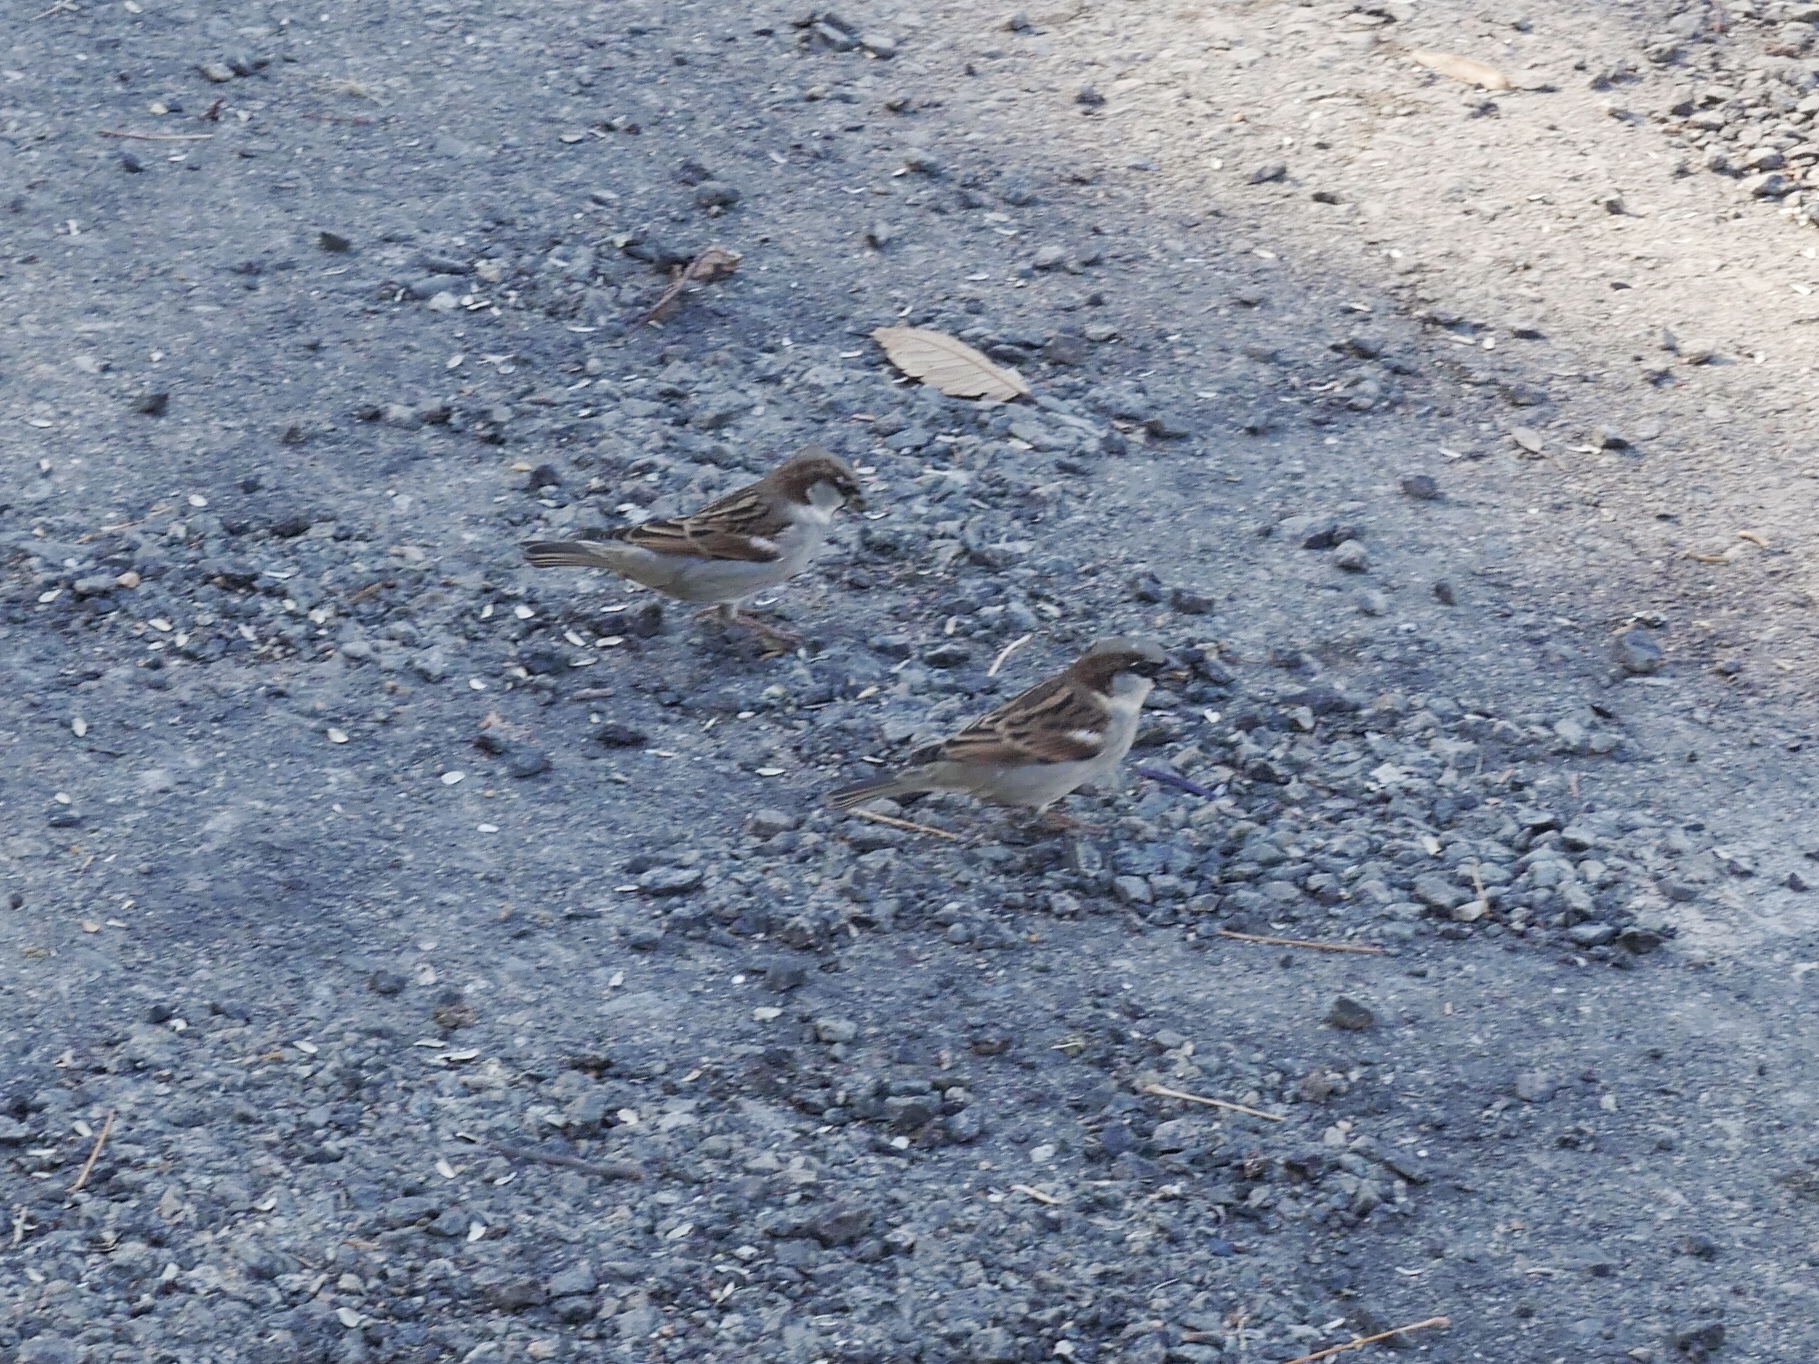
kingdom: Animalia
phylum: Chordata
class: Aves
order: Passeriformes
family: Passeridae
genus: Passer
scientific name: Passer domesticus
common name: House sparrow
